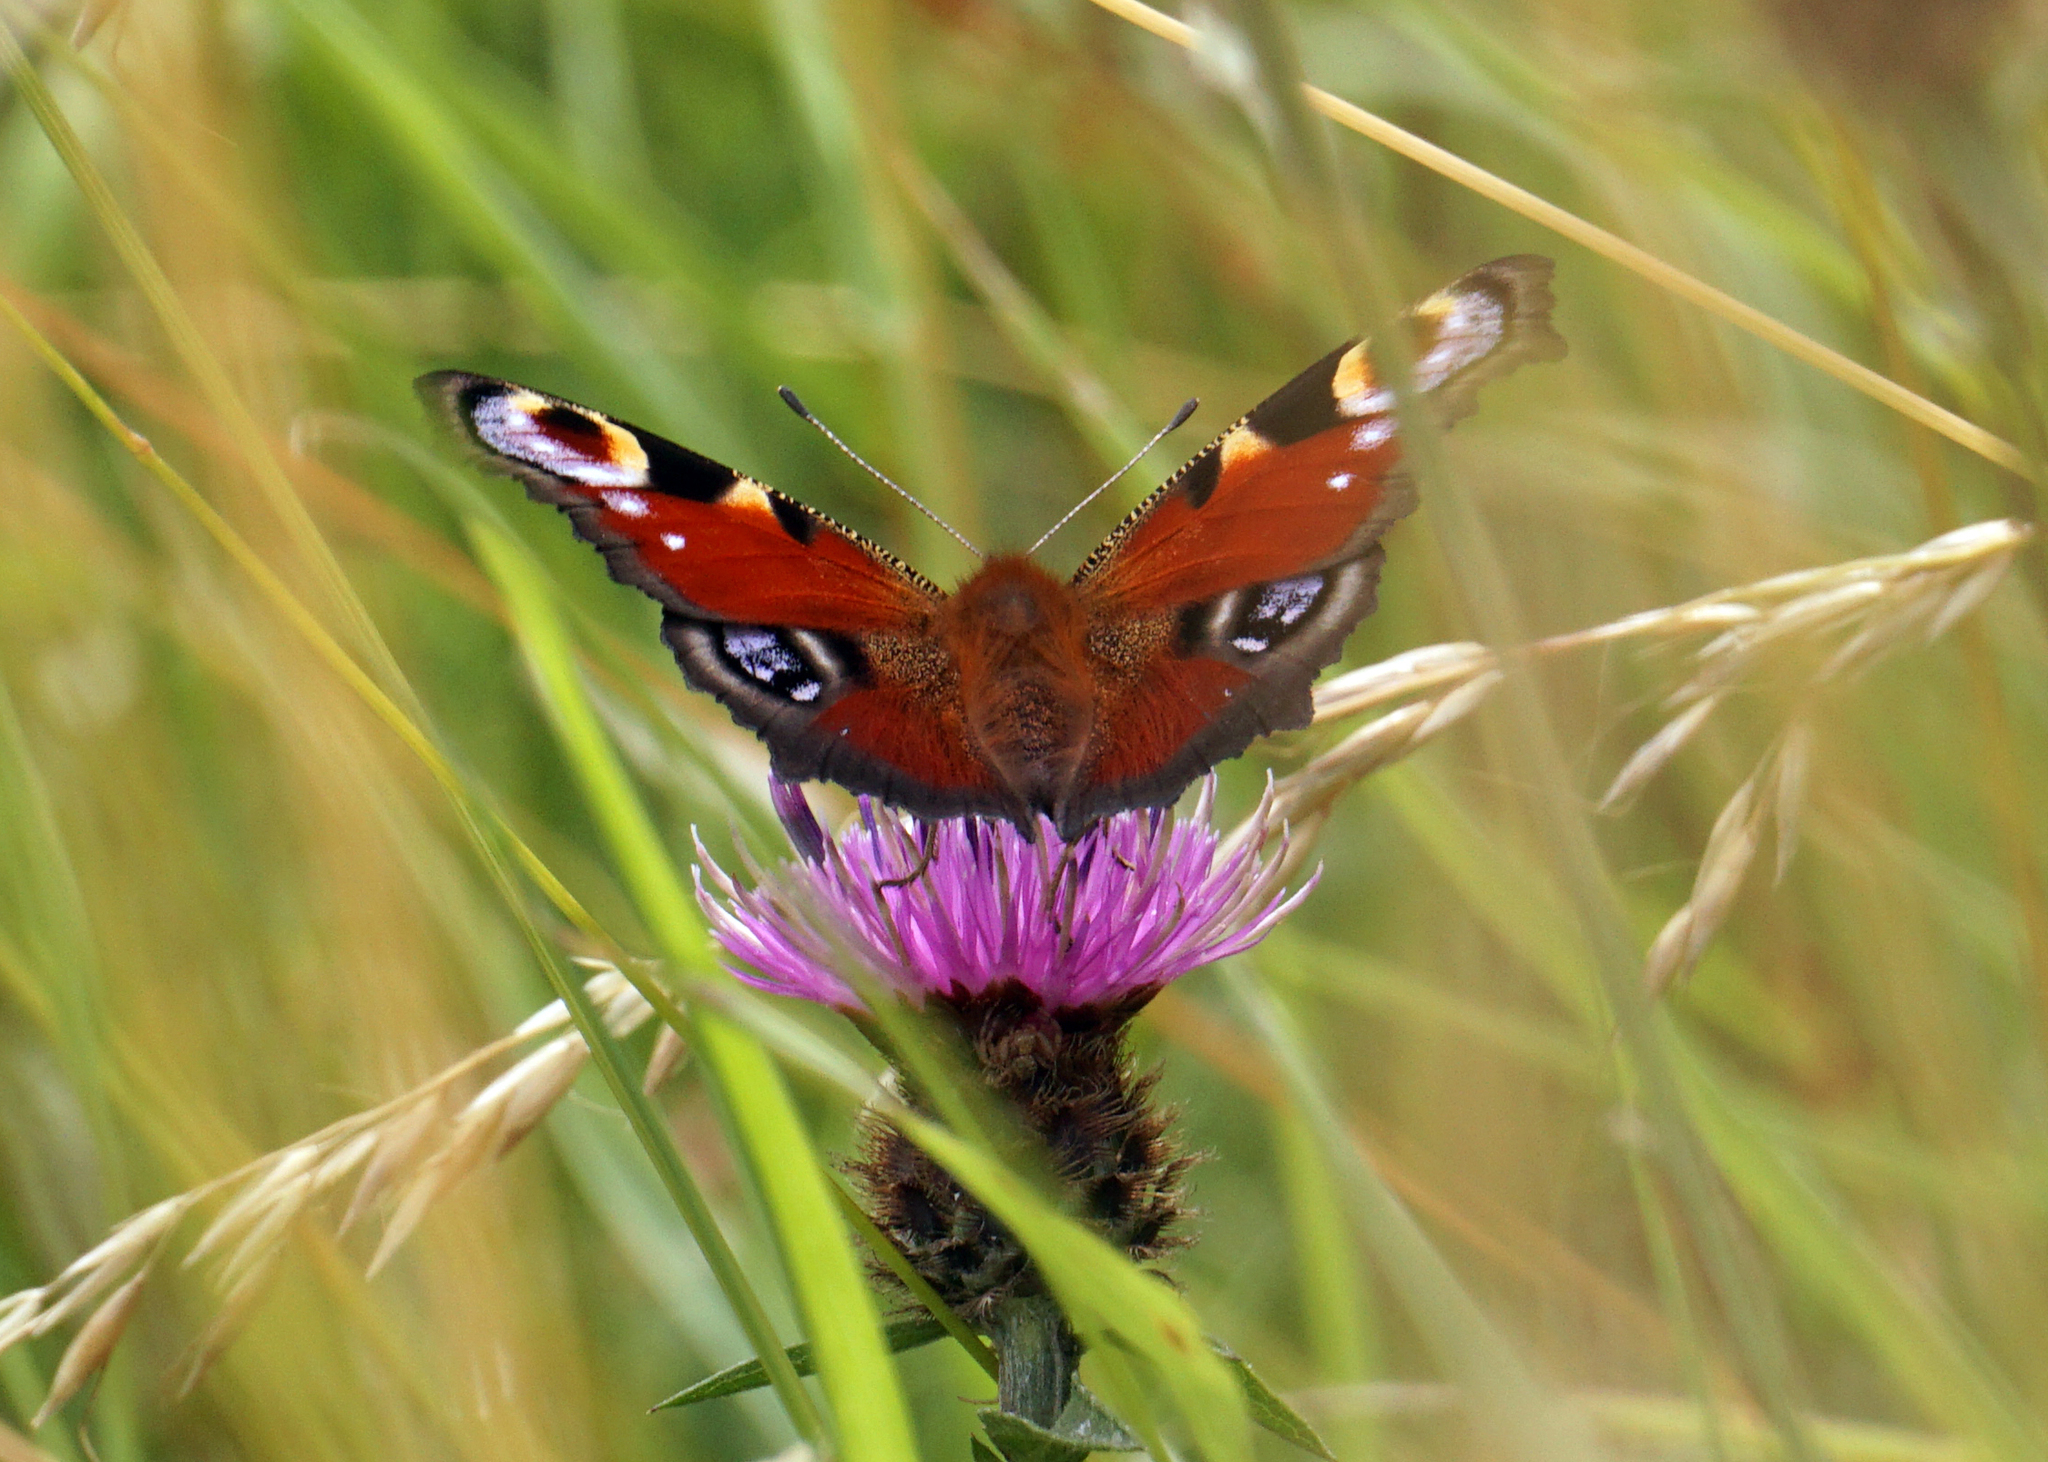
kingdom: Animalia
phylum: Arthropoda
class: Insecta
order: Lepidoptera
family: Nymphalidae
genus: Aglais
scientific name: Aglais io
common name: Peacock
